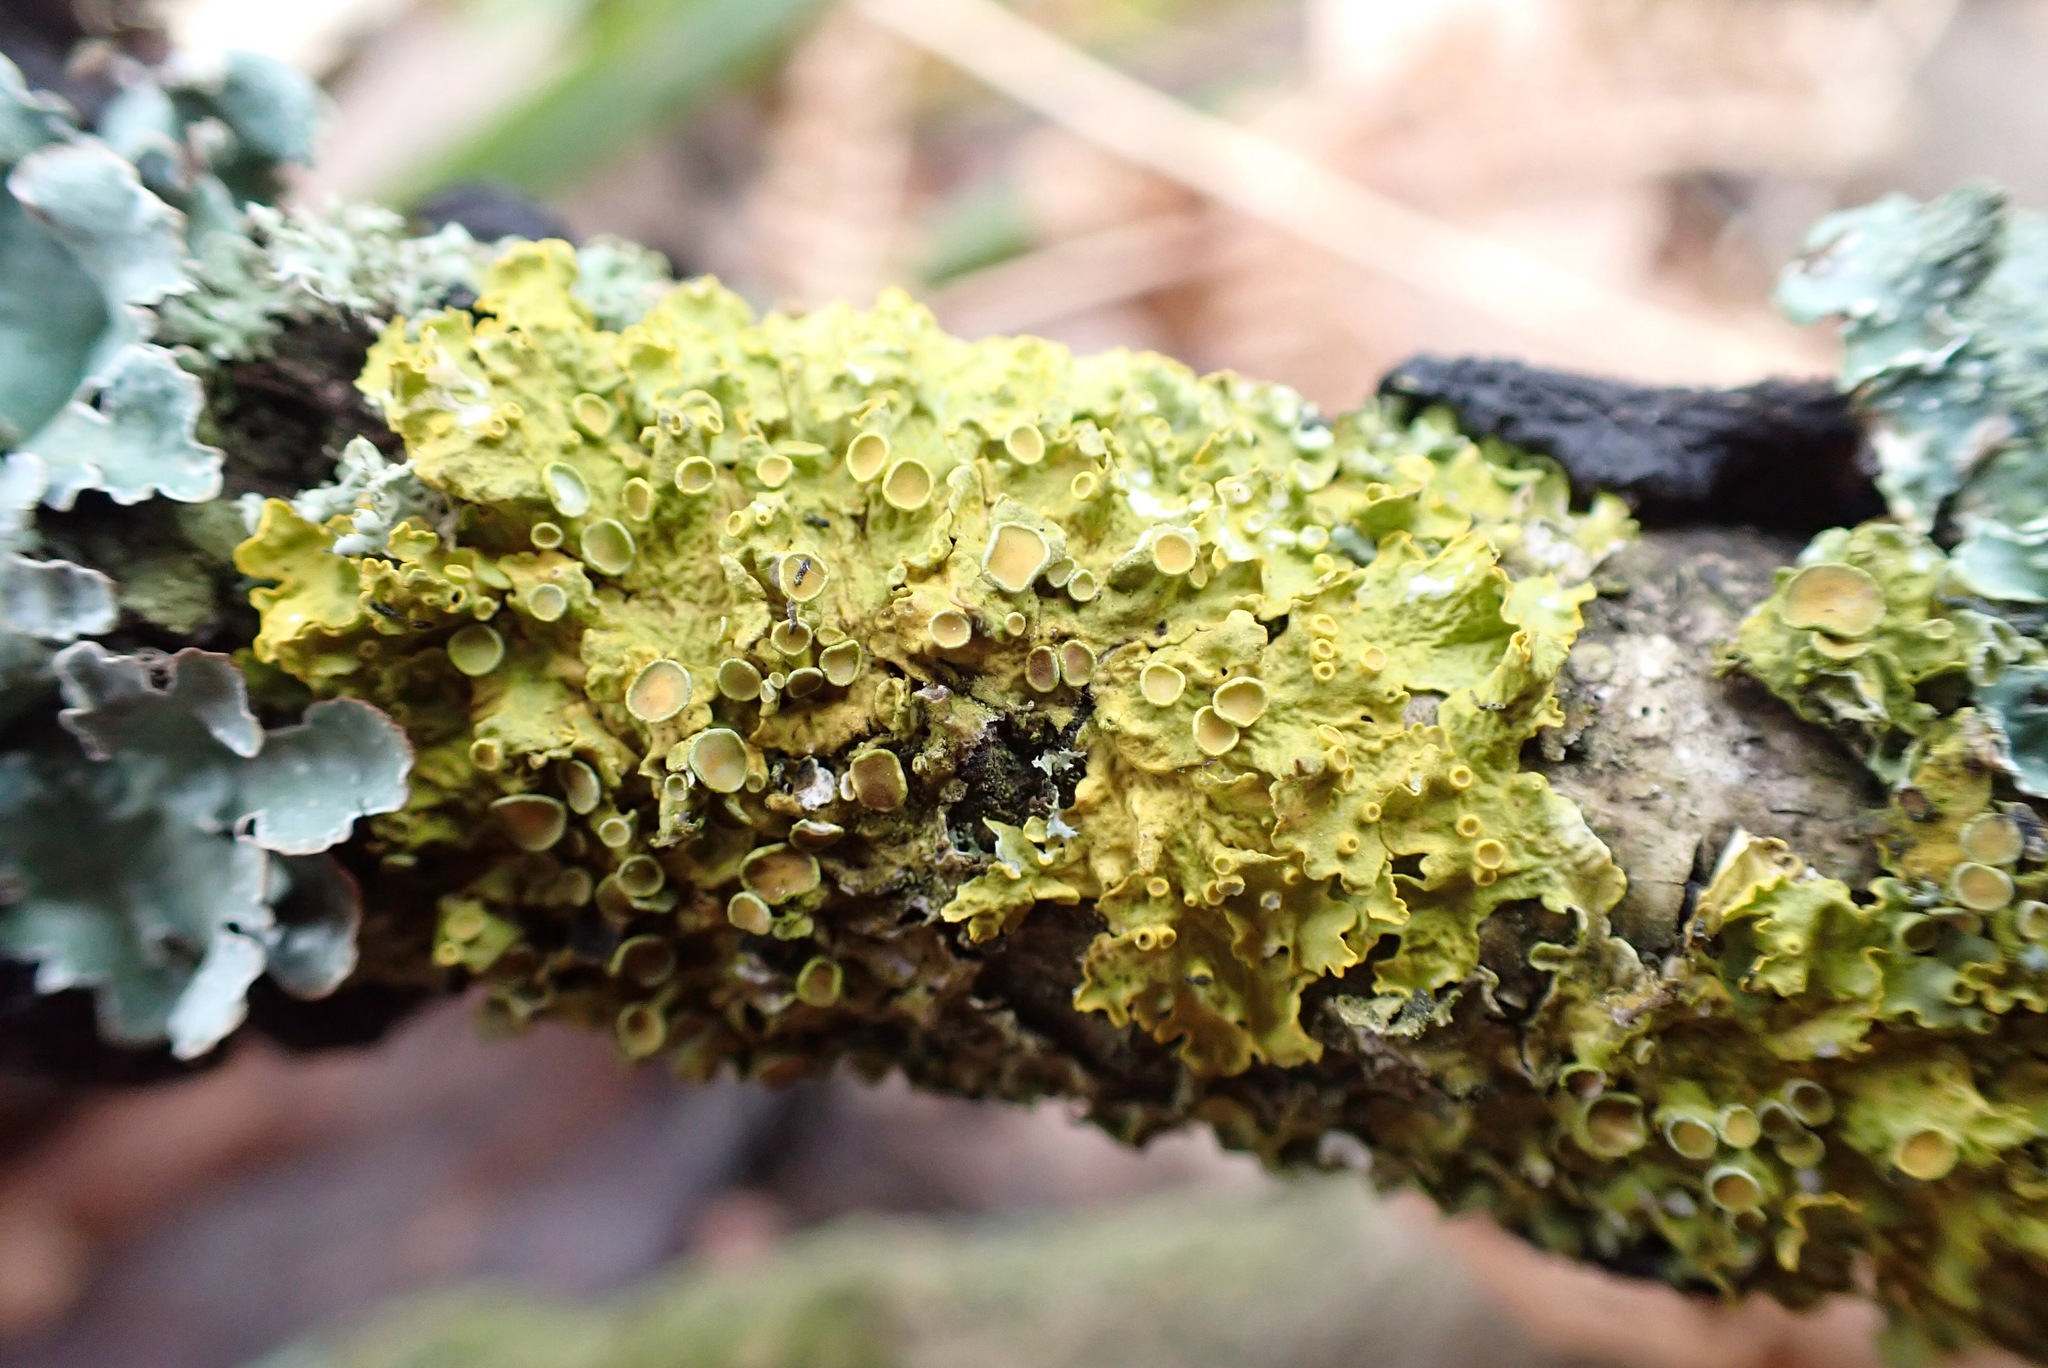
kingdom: Fungi
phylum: Ascomycota
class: Lecanoromycetes
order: Teloschistales
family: Teloschistaceae
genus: Xanthoria
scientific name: Xanthoria parietina
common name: Common orange lichen
